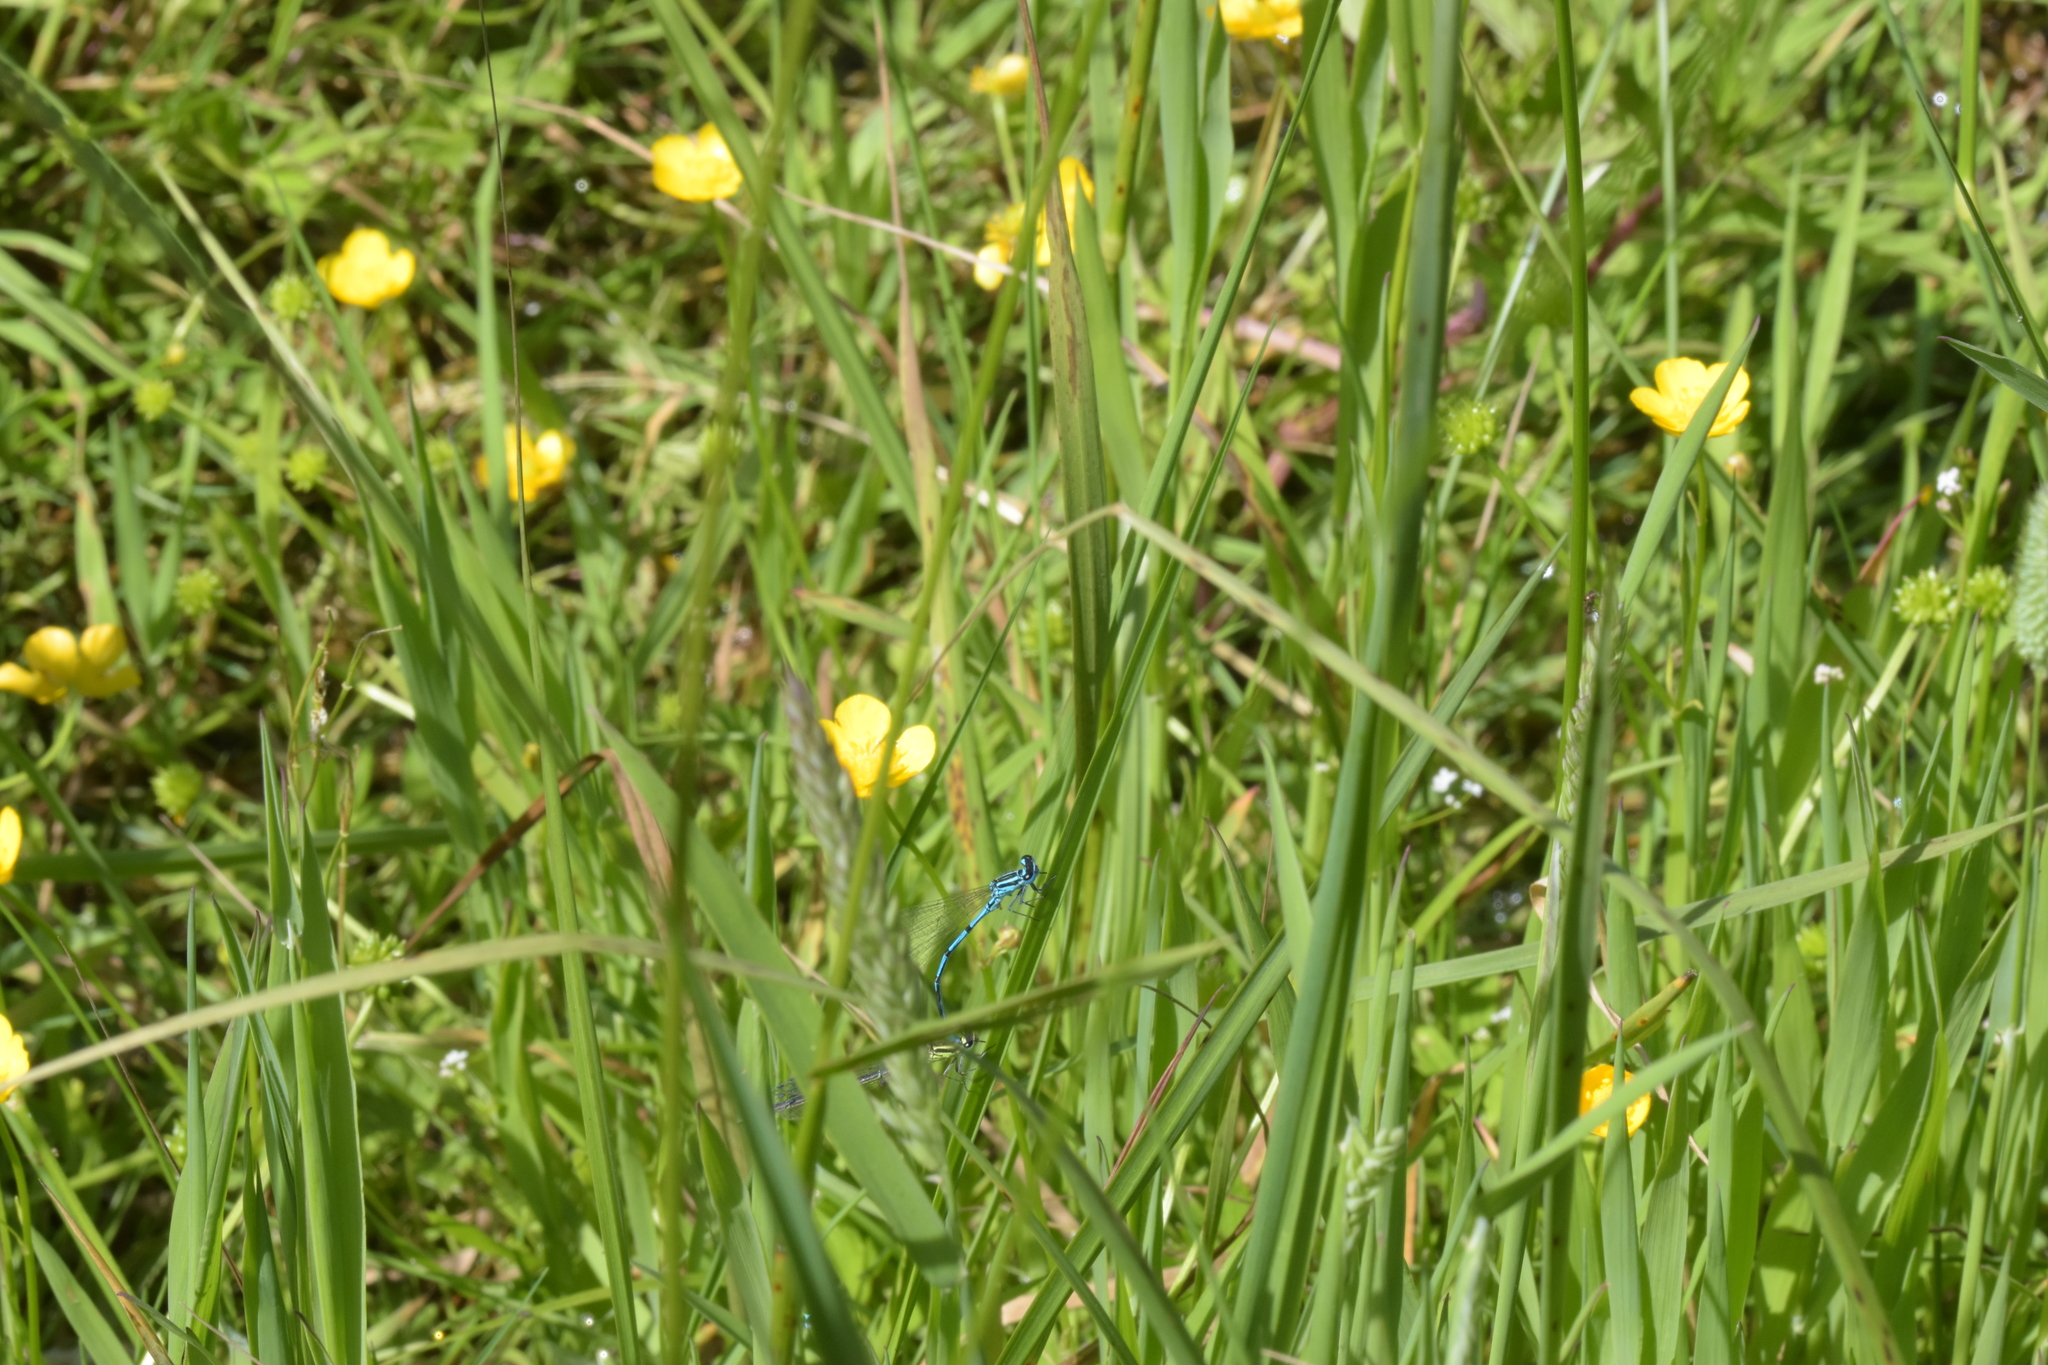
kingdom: Animalia
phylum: Arthropoda
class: Insecta
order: Odonata
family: Coenagrionidae
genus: Coenagrion
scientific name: Coenagrion puella
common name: Azure damselfly
